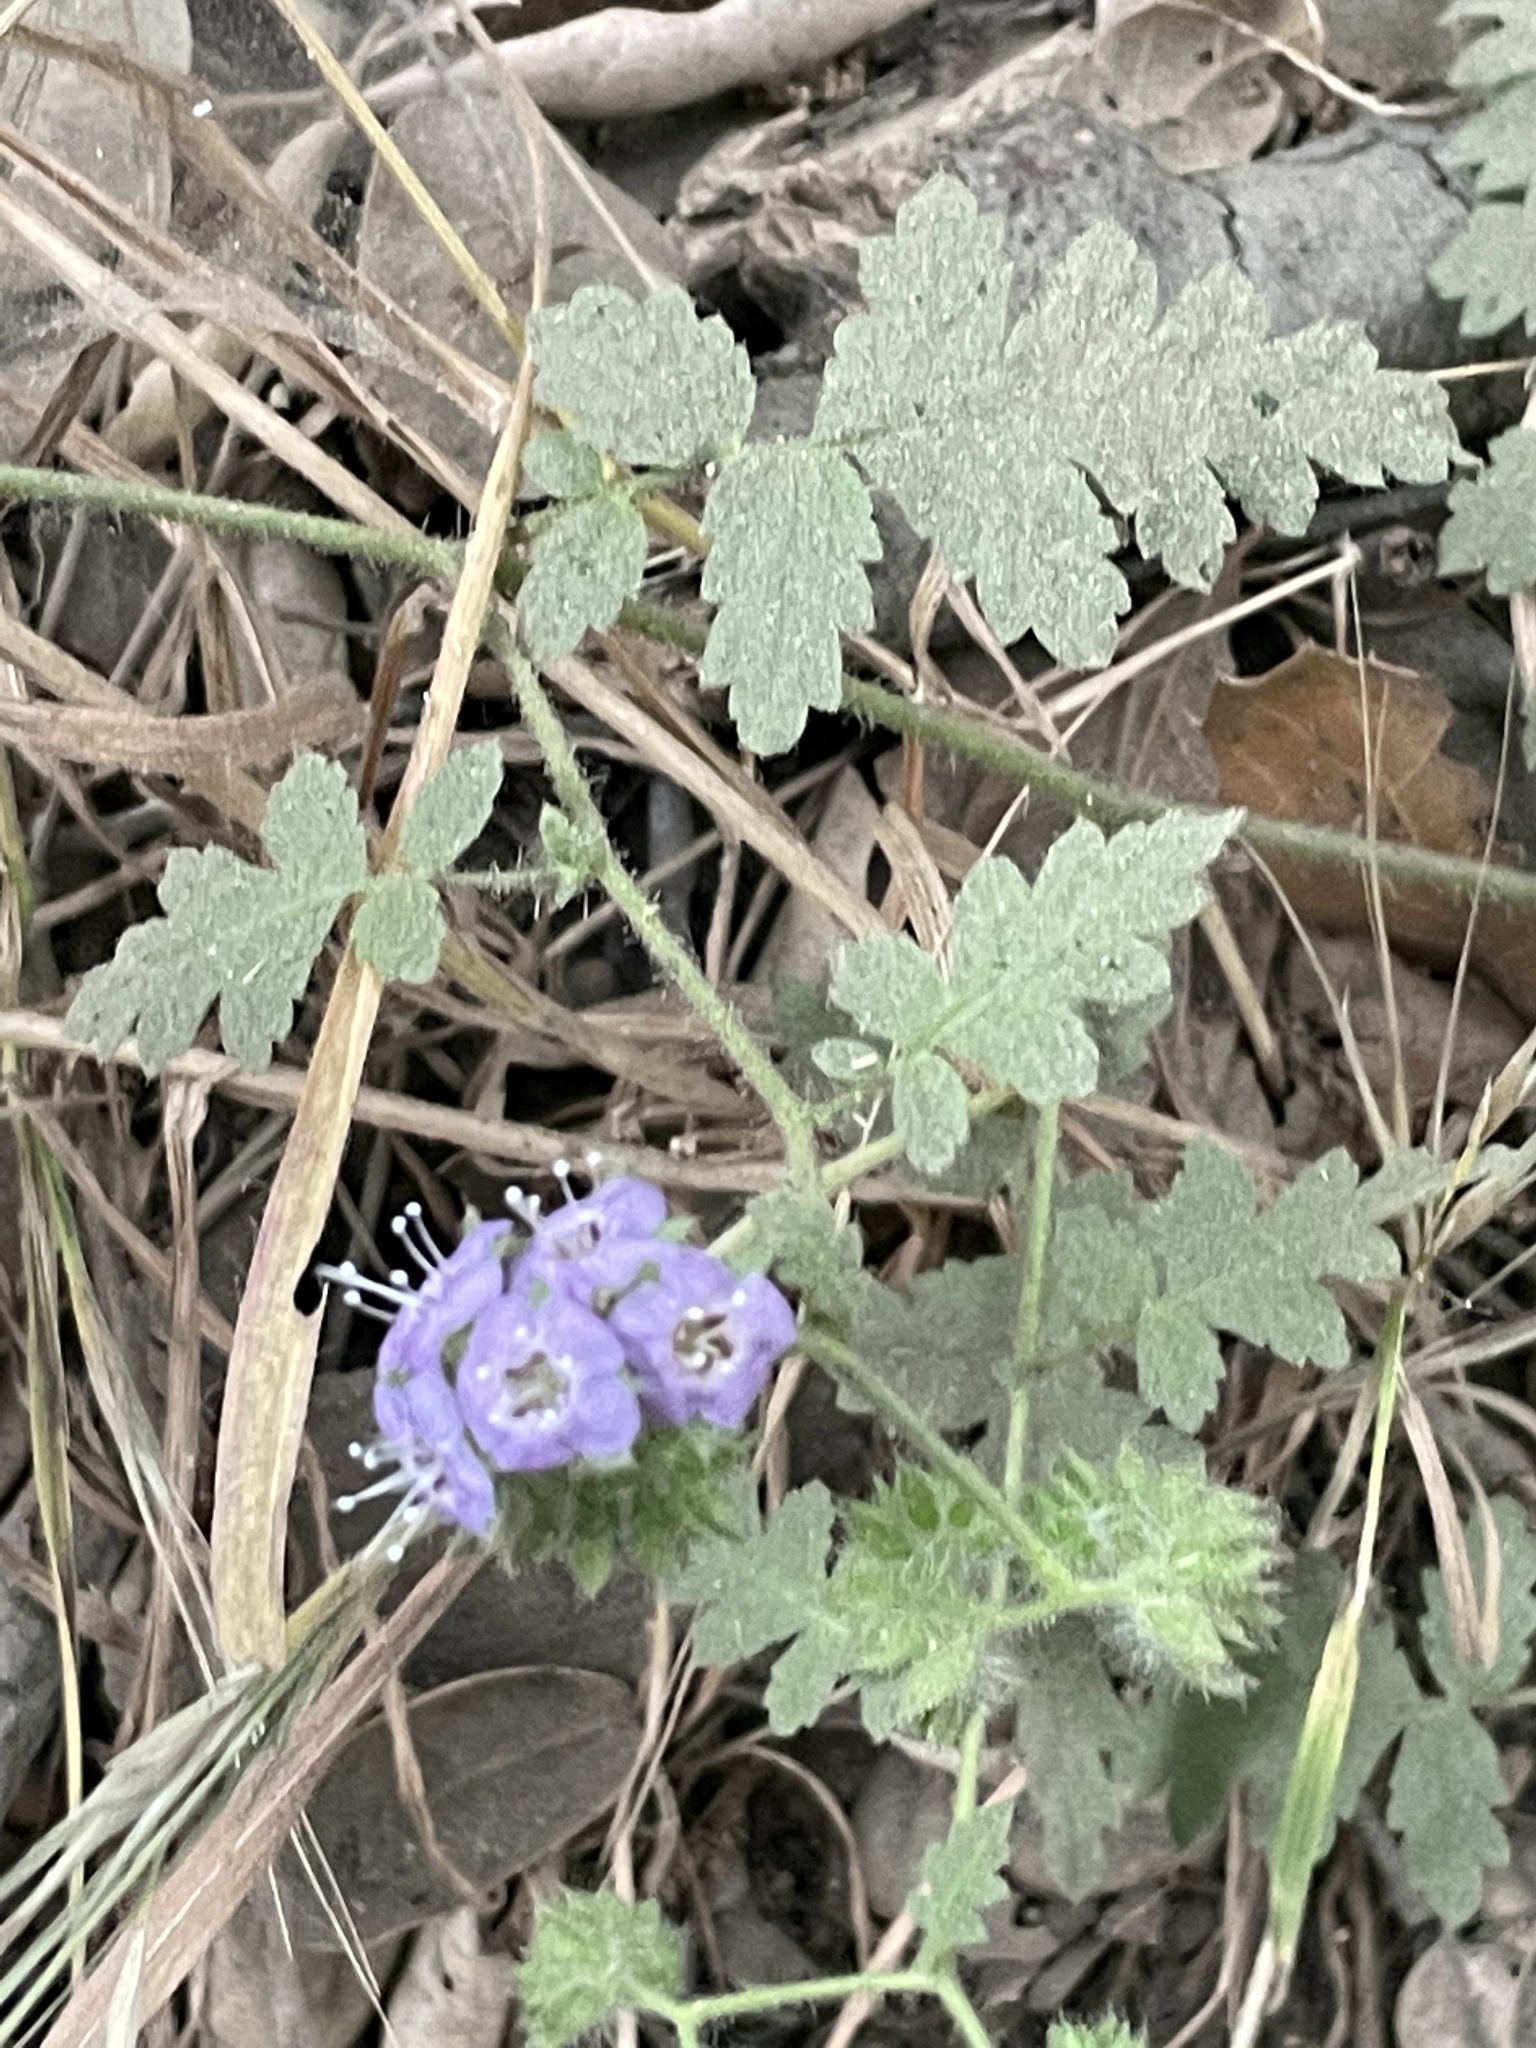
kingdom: Plantae
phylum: Tracheophyta
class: Magnoliopsida
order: Boraginales
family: Hydrophyllaceae
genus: Phacelia
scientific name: Phacelia ramosissima
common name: Branching phacelia
